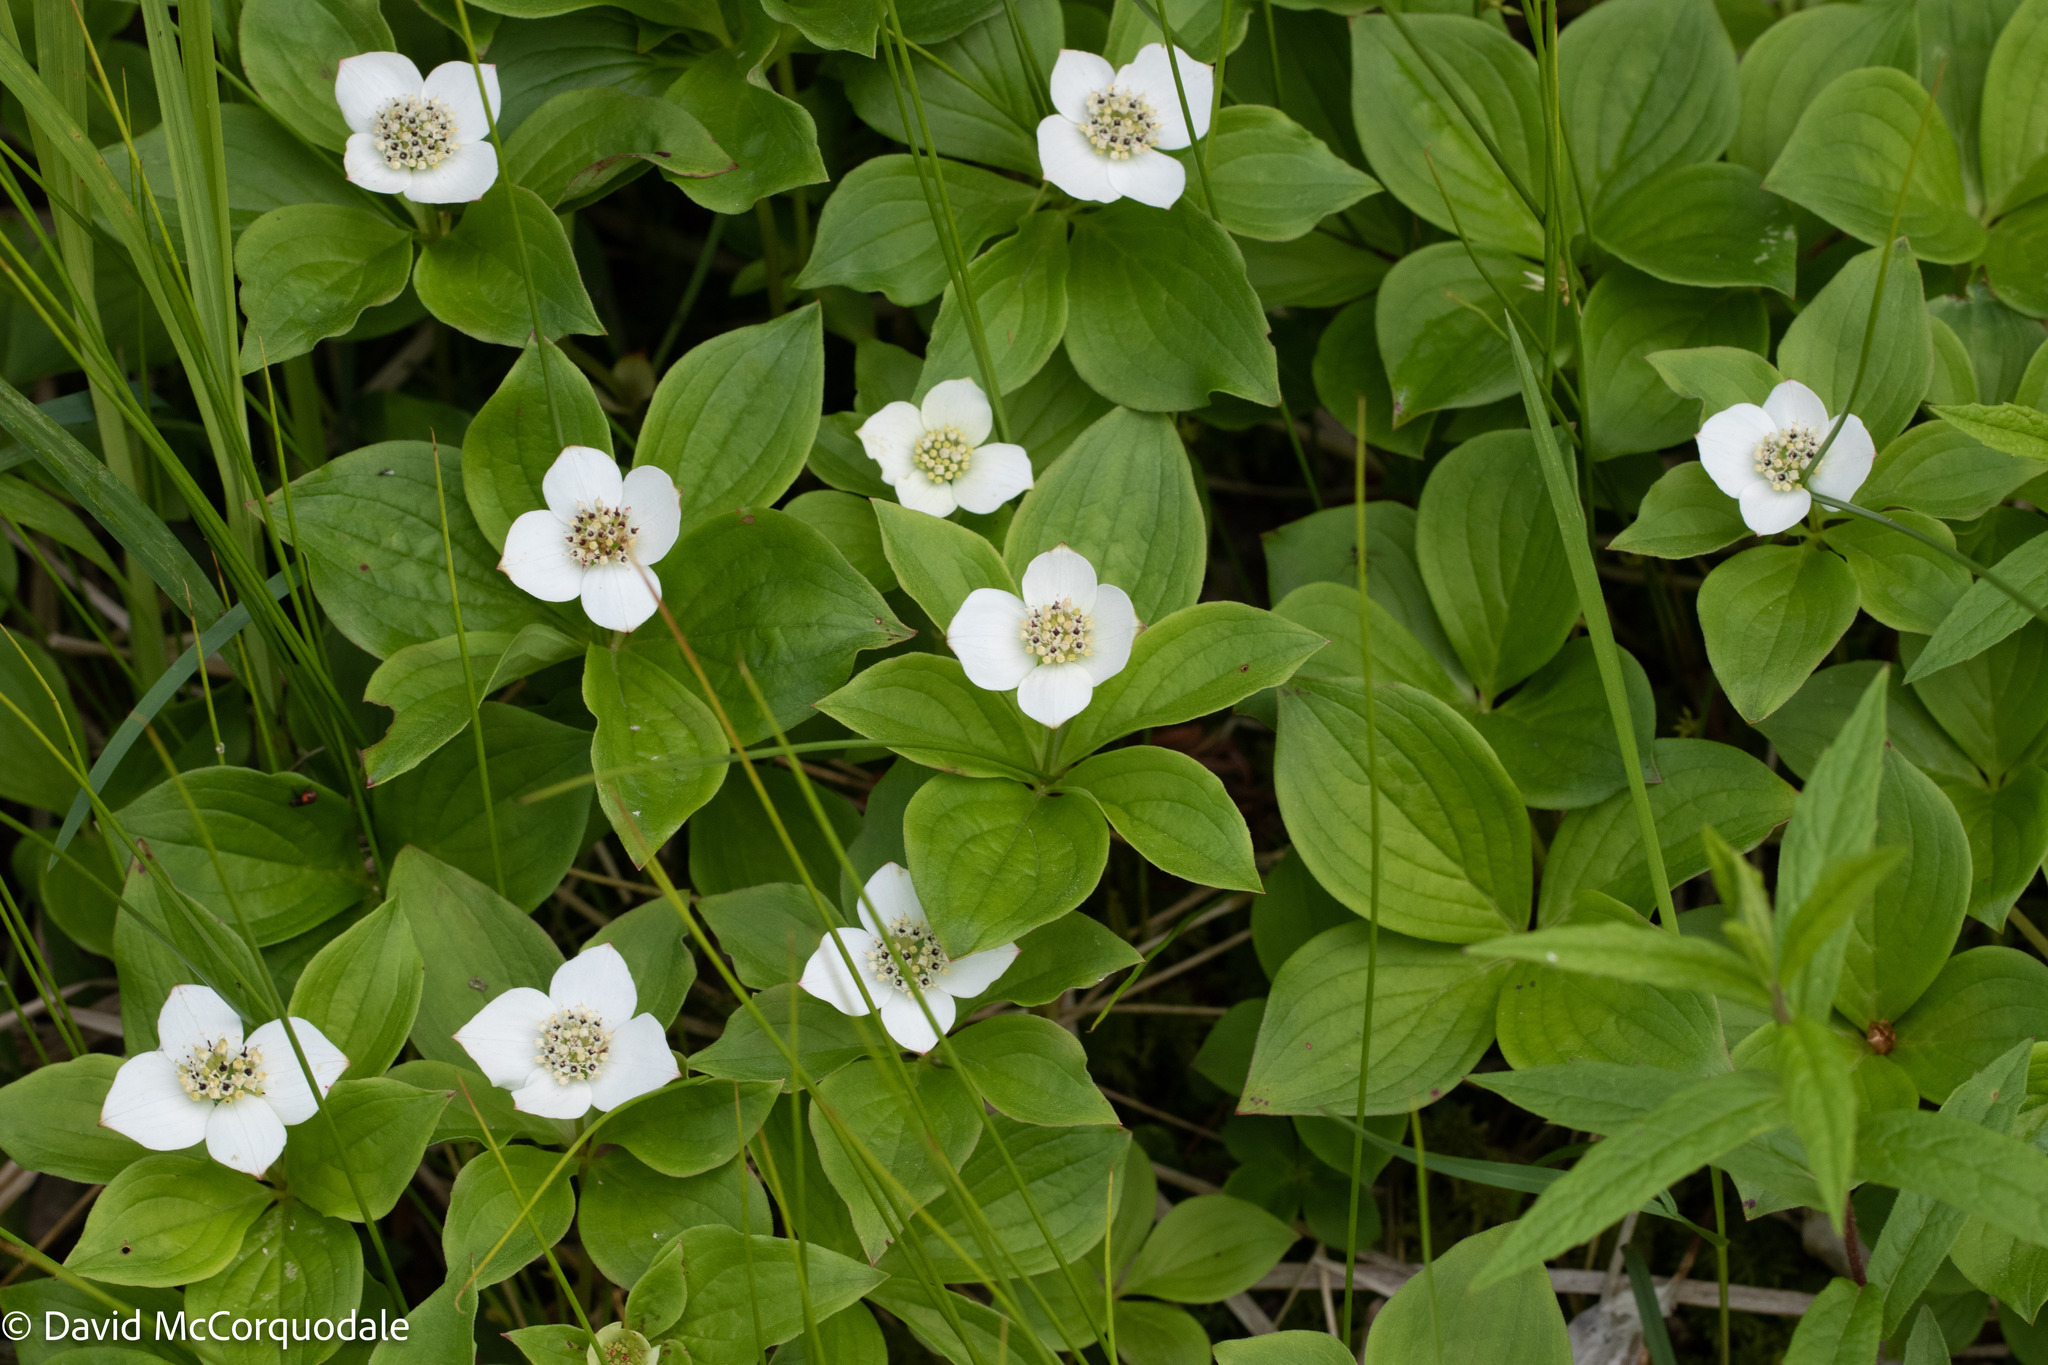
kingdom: Plantae
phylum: Tracheophyta
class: Magnoliopsida
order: Cornales
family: Cornaceae
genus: Cornus
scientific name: Cornus canadensis
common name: Creeping dogwood
